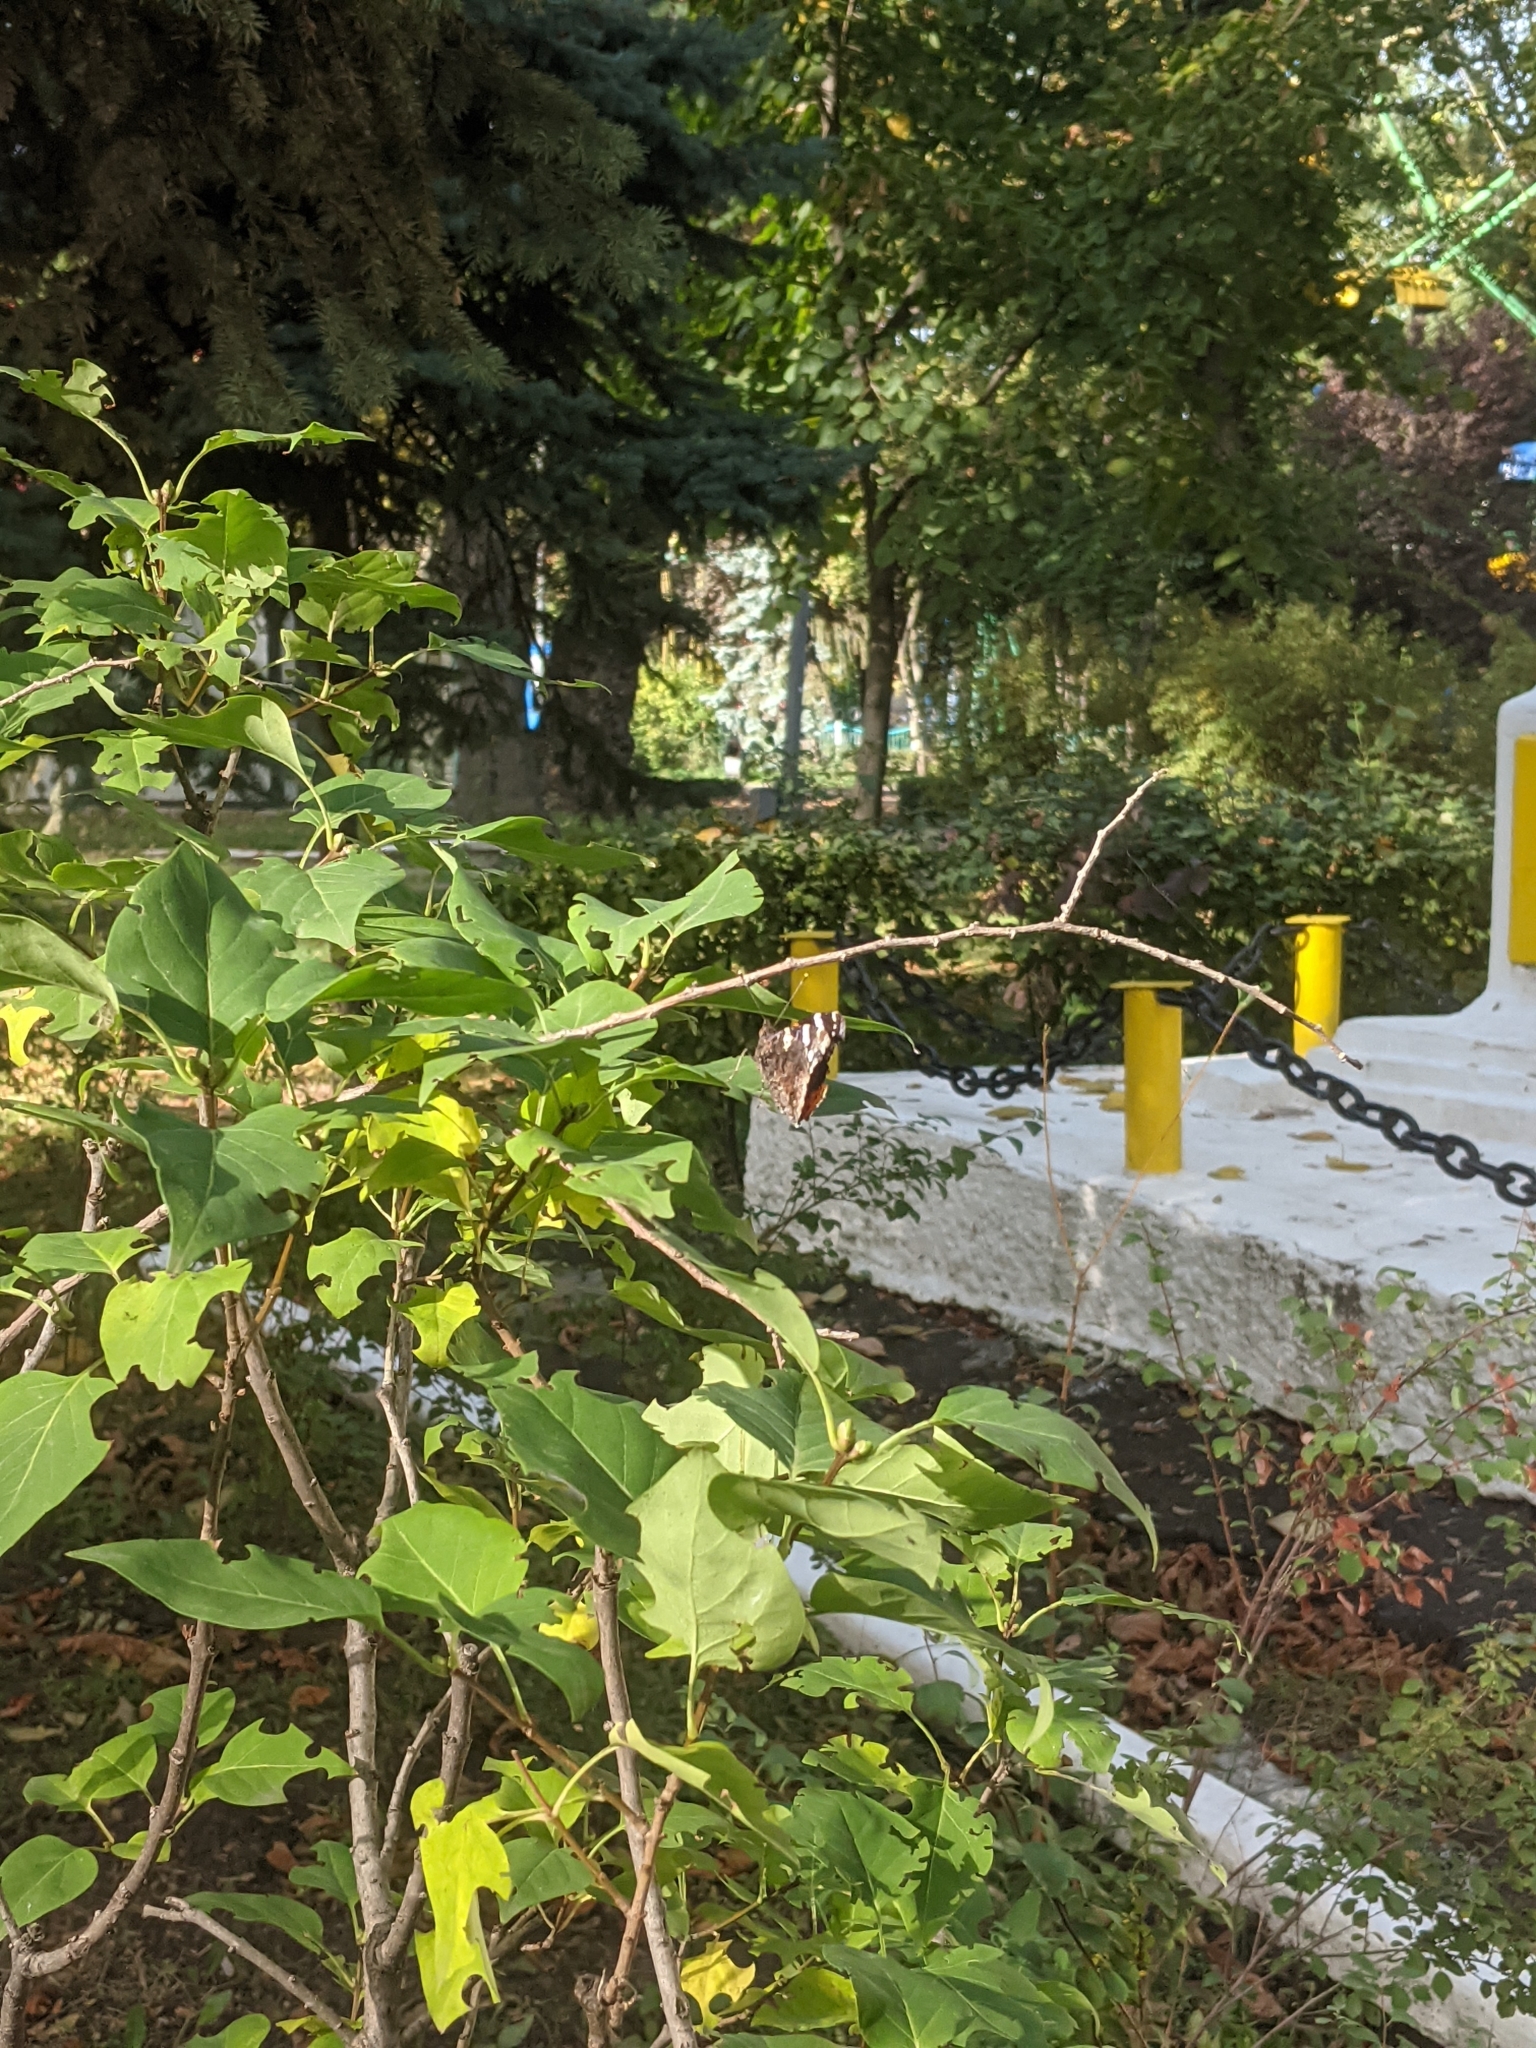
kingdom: Animalia
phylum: Arthropoda
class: Insecta
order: Lepidoptera
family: Nymphalidae
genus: Vanessa
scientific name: Vanessa atalanta
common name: Red admiral
